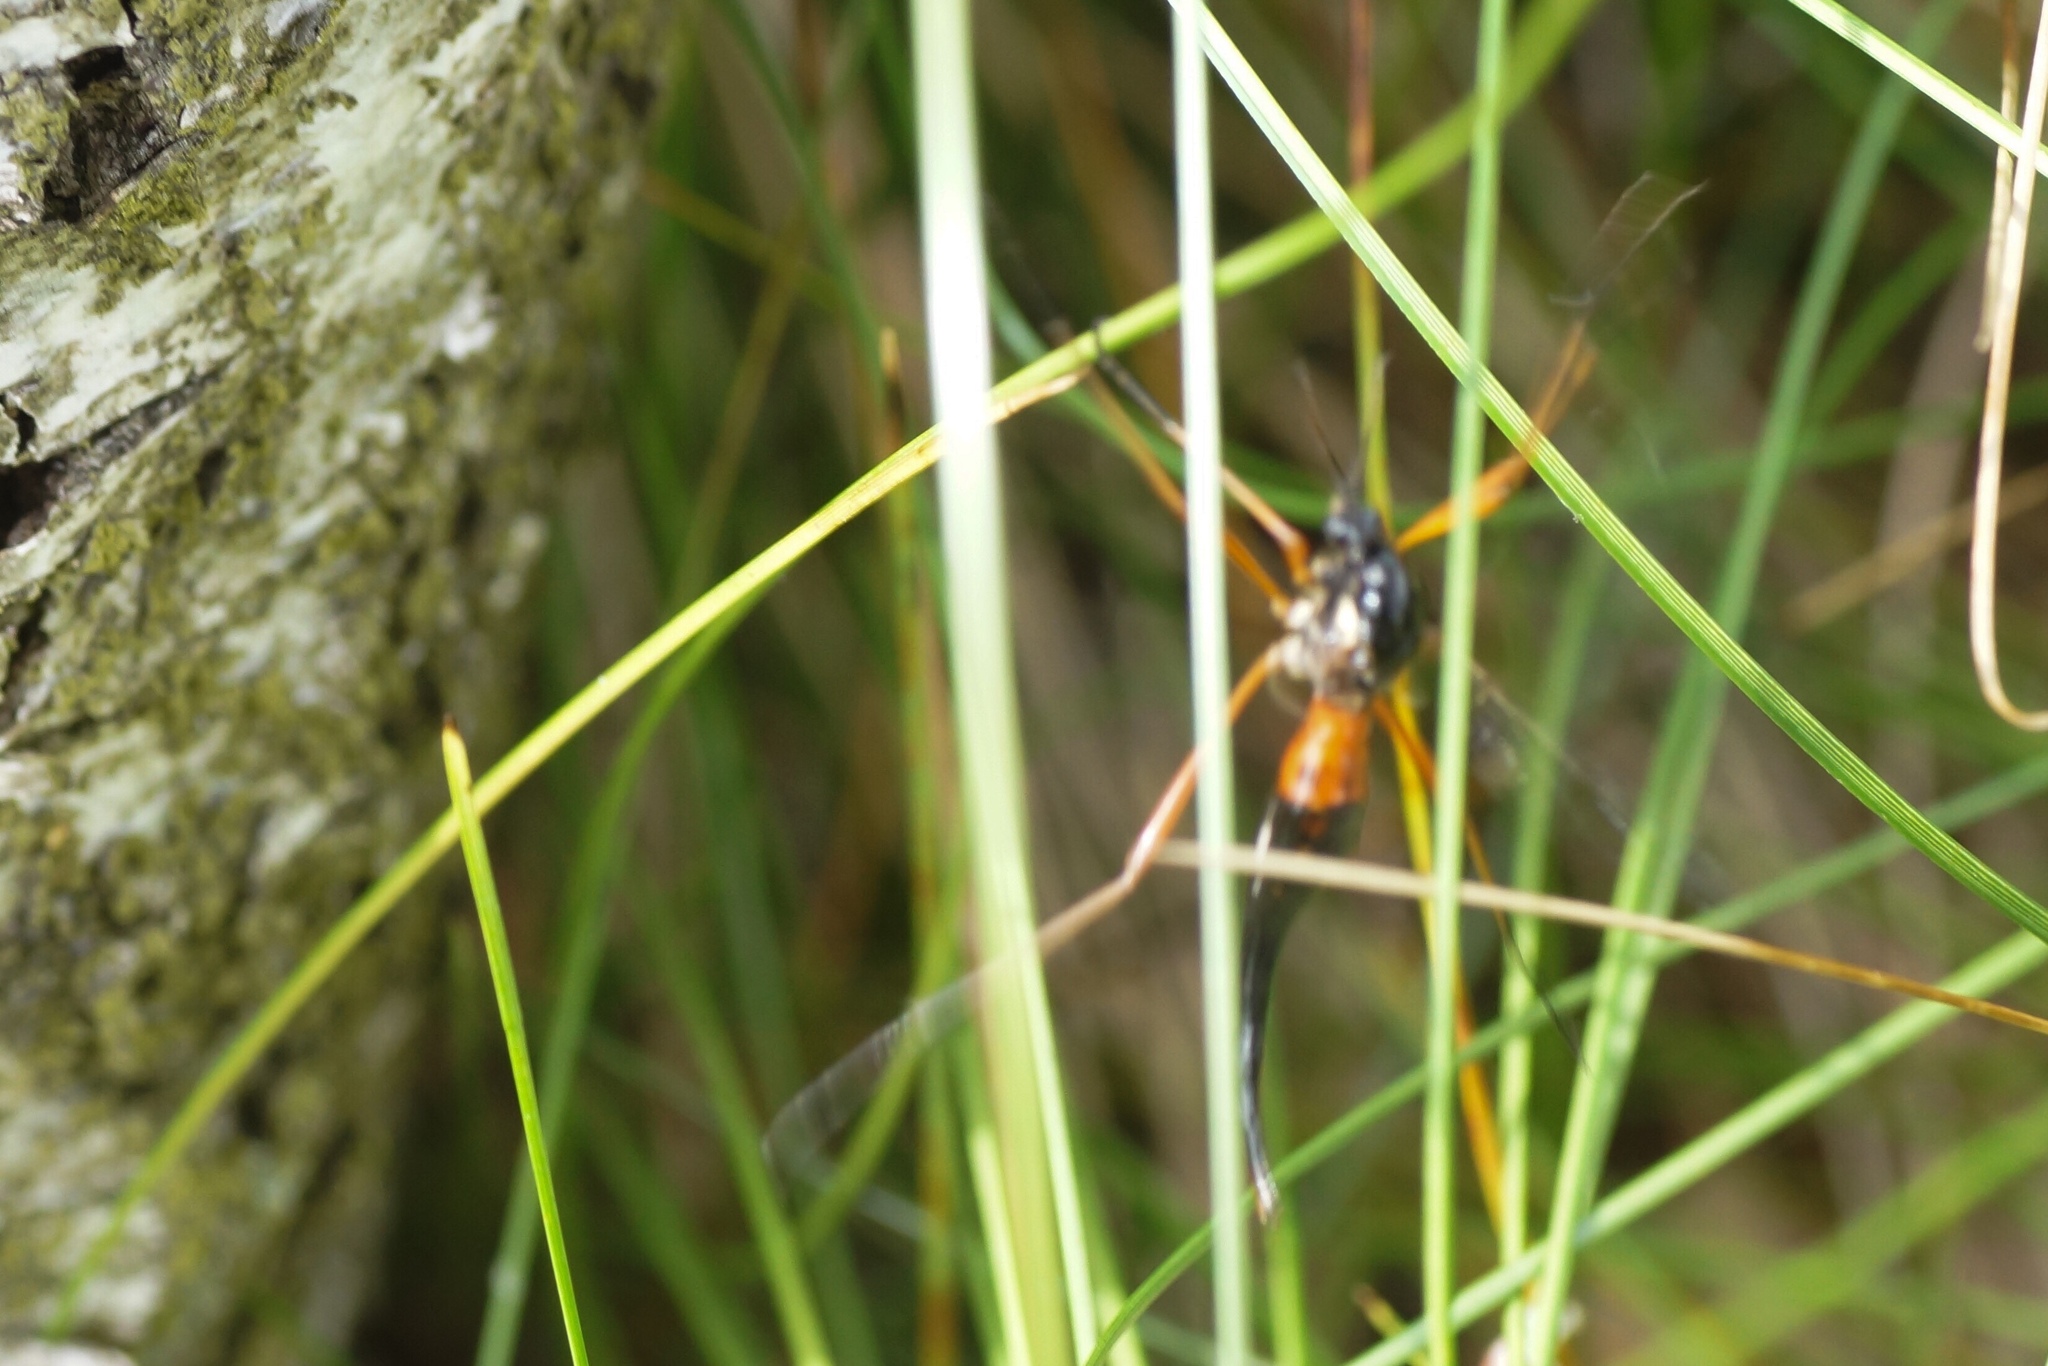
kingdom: Animalia
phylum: Arthropoda
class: Insecta
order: Diptera
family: Tipulidae
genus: Tanyptera
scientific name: Tanyptera atrata
